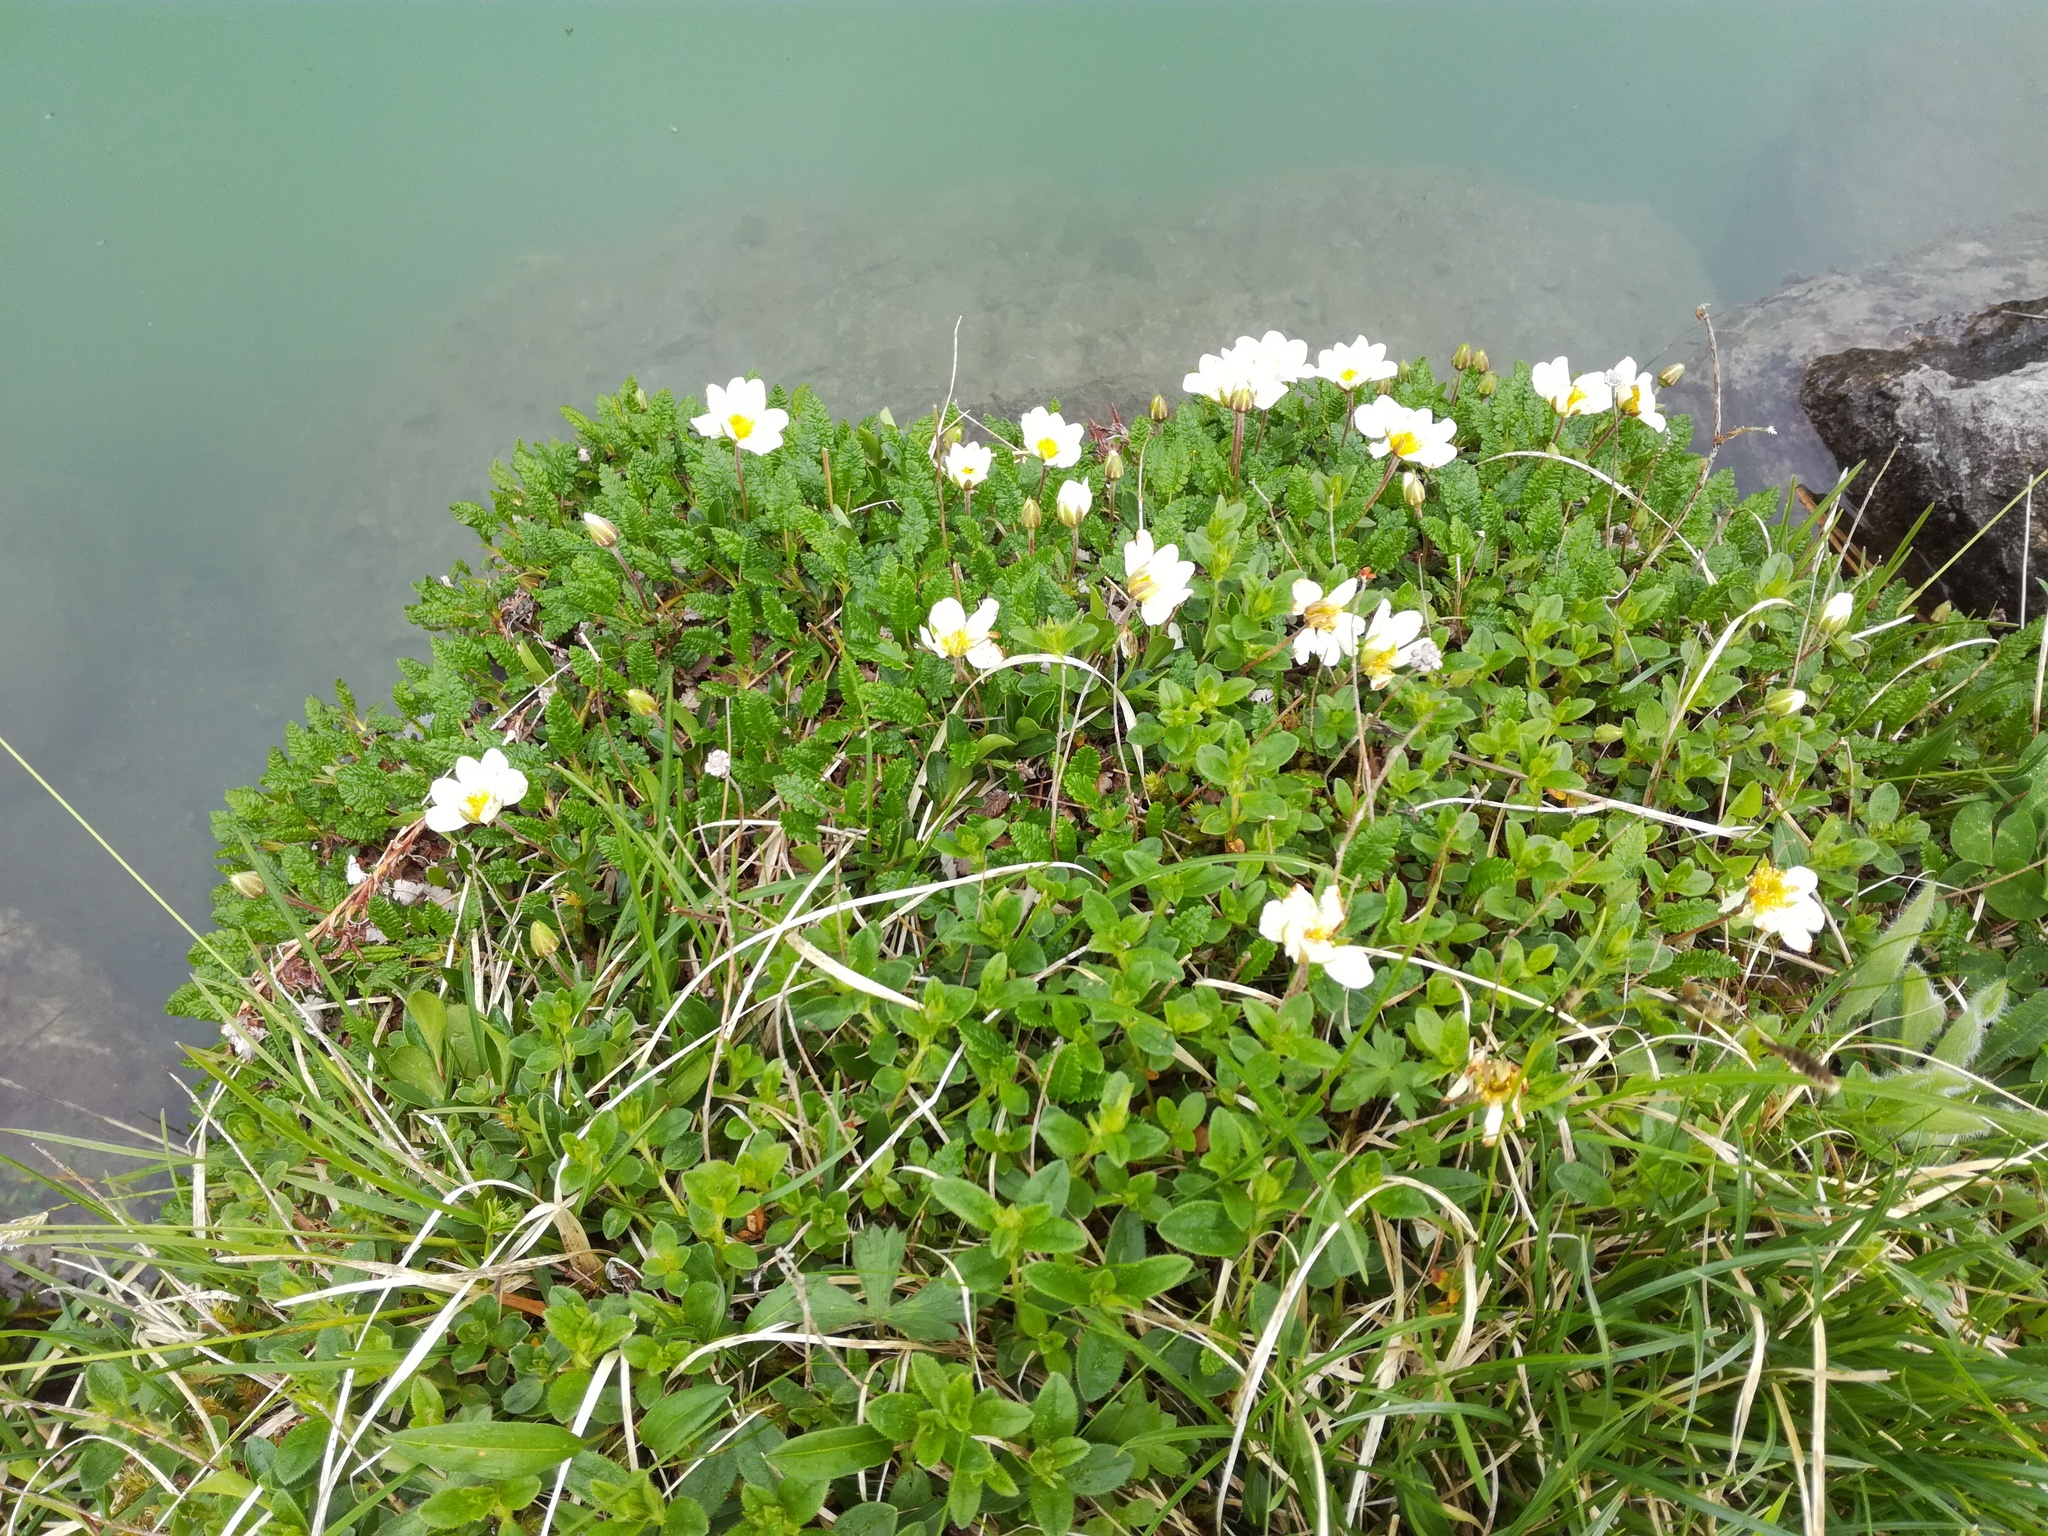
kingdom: Plantae
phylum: Tracheophyta
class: Magnoliopsida
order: Rosales
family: Rosaceae
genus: Dryas
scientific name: Dryas octopetala
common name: Eight-petal mountain-avens
